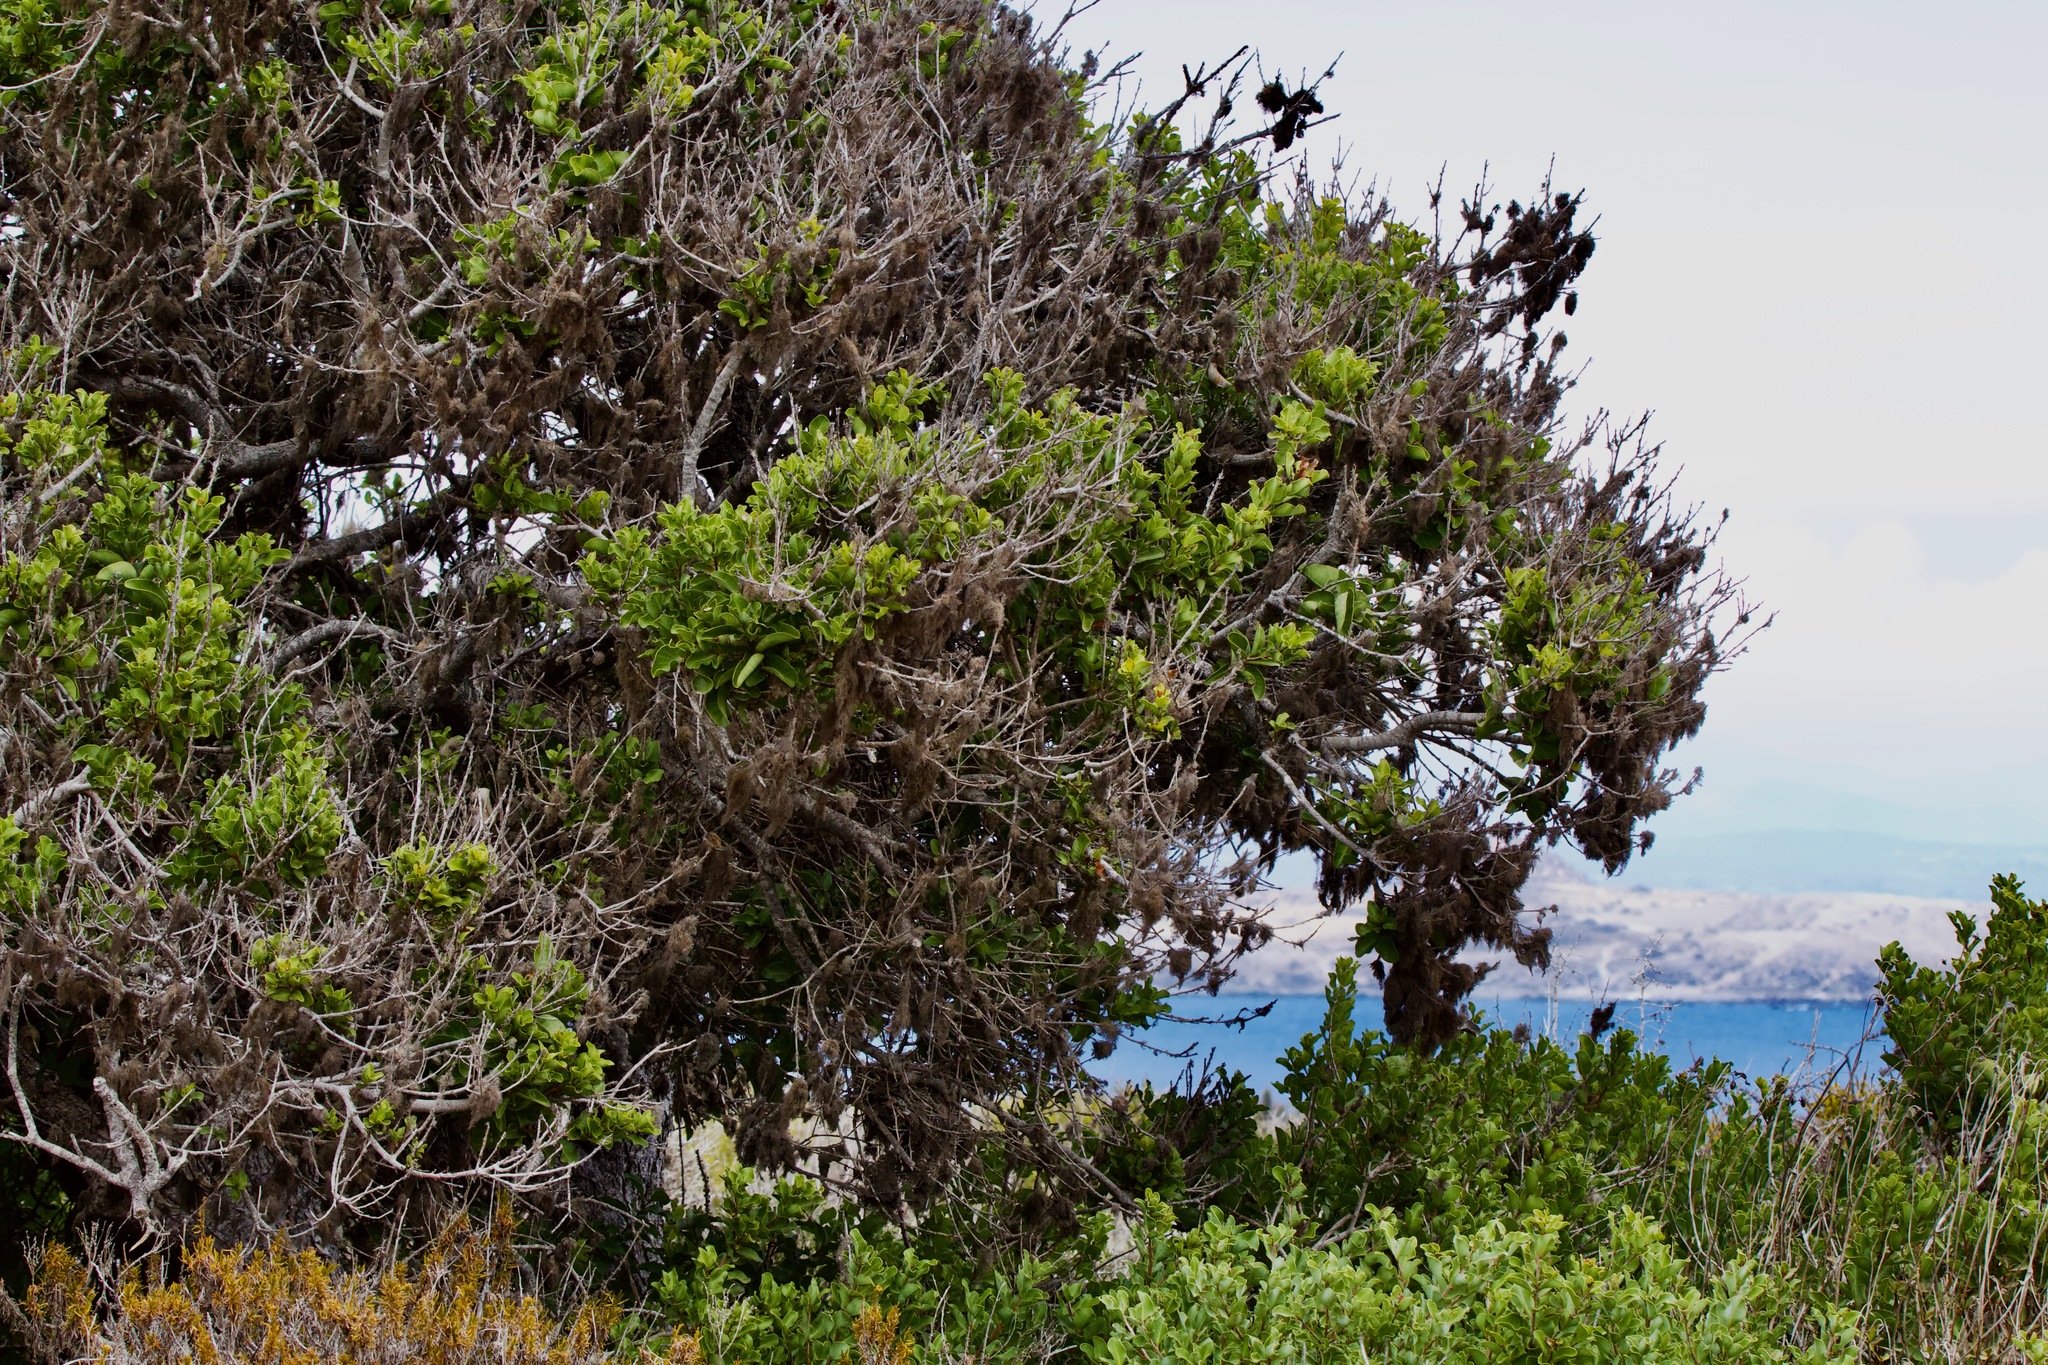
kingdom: Plantae
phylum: Tracheophyta
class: Magnoliopsida
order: Sapindales
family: Anacardiaceae
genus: Lithraea
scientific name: Lithraea caustica
